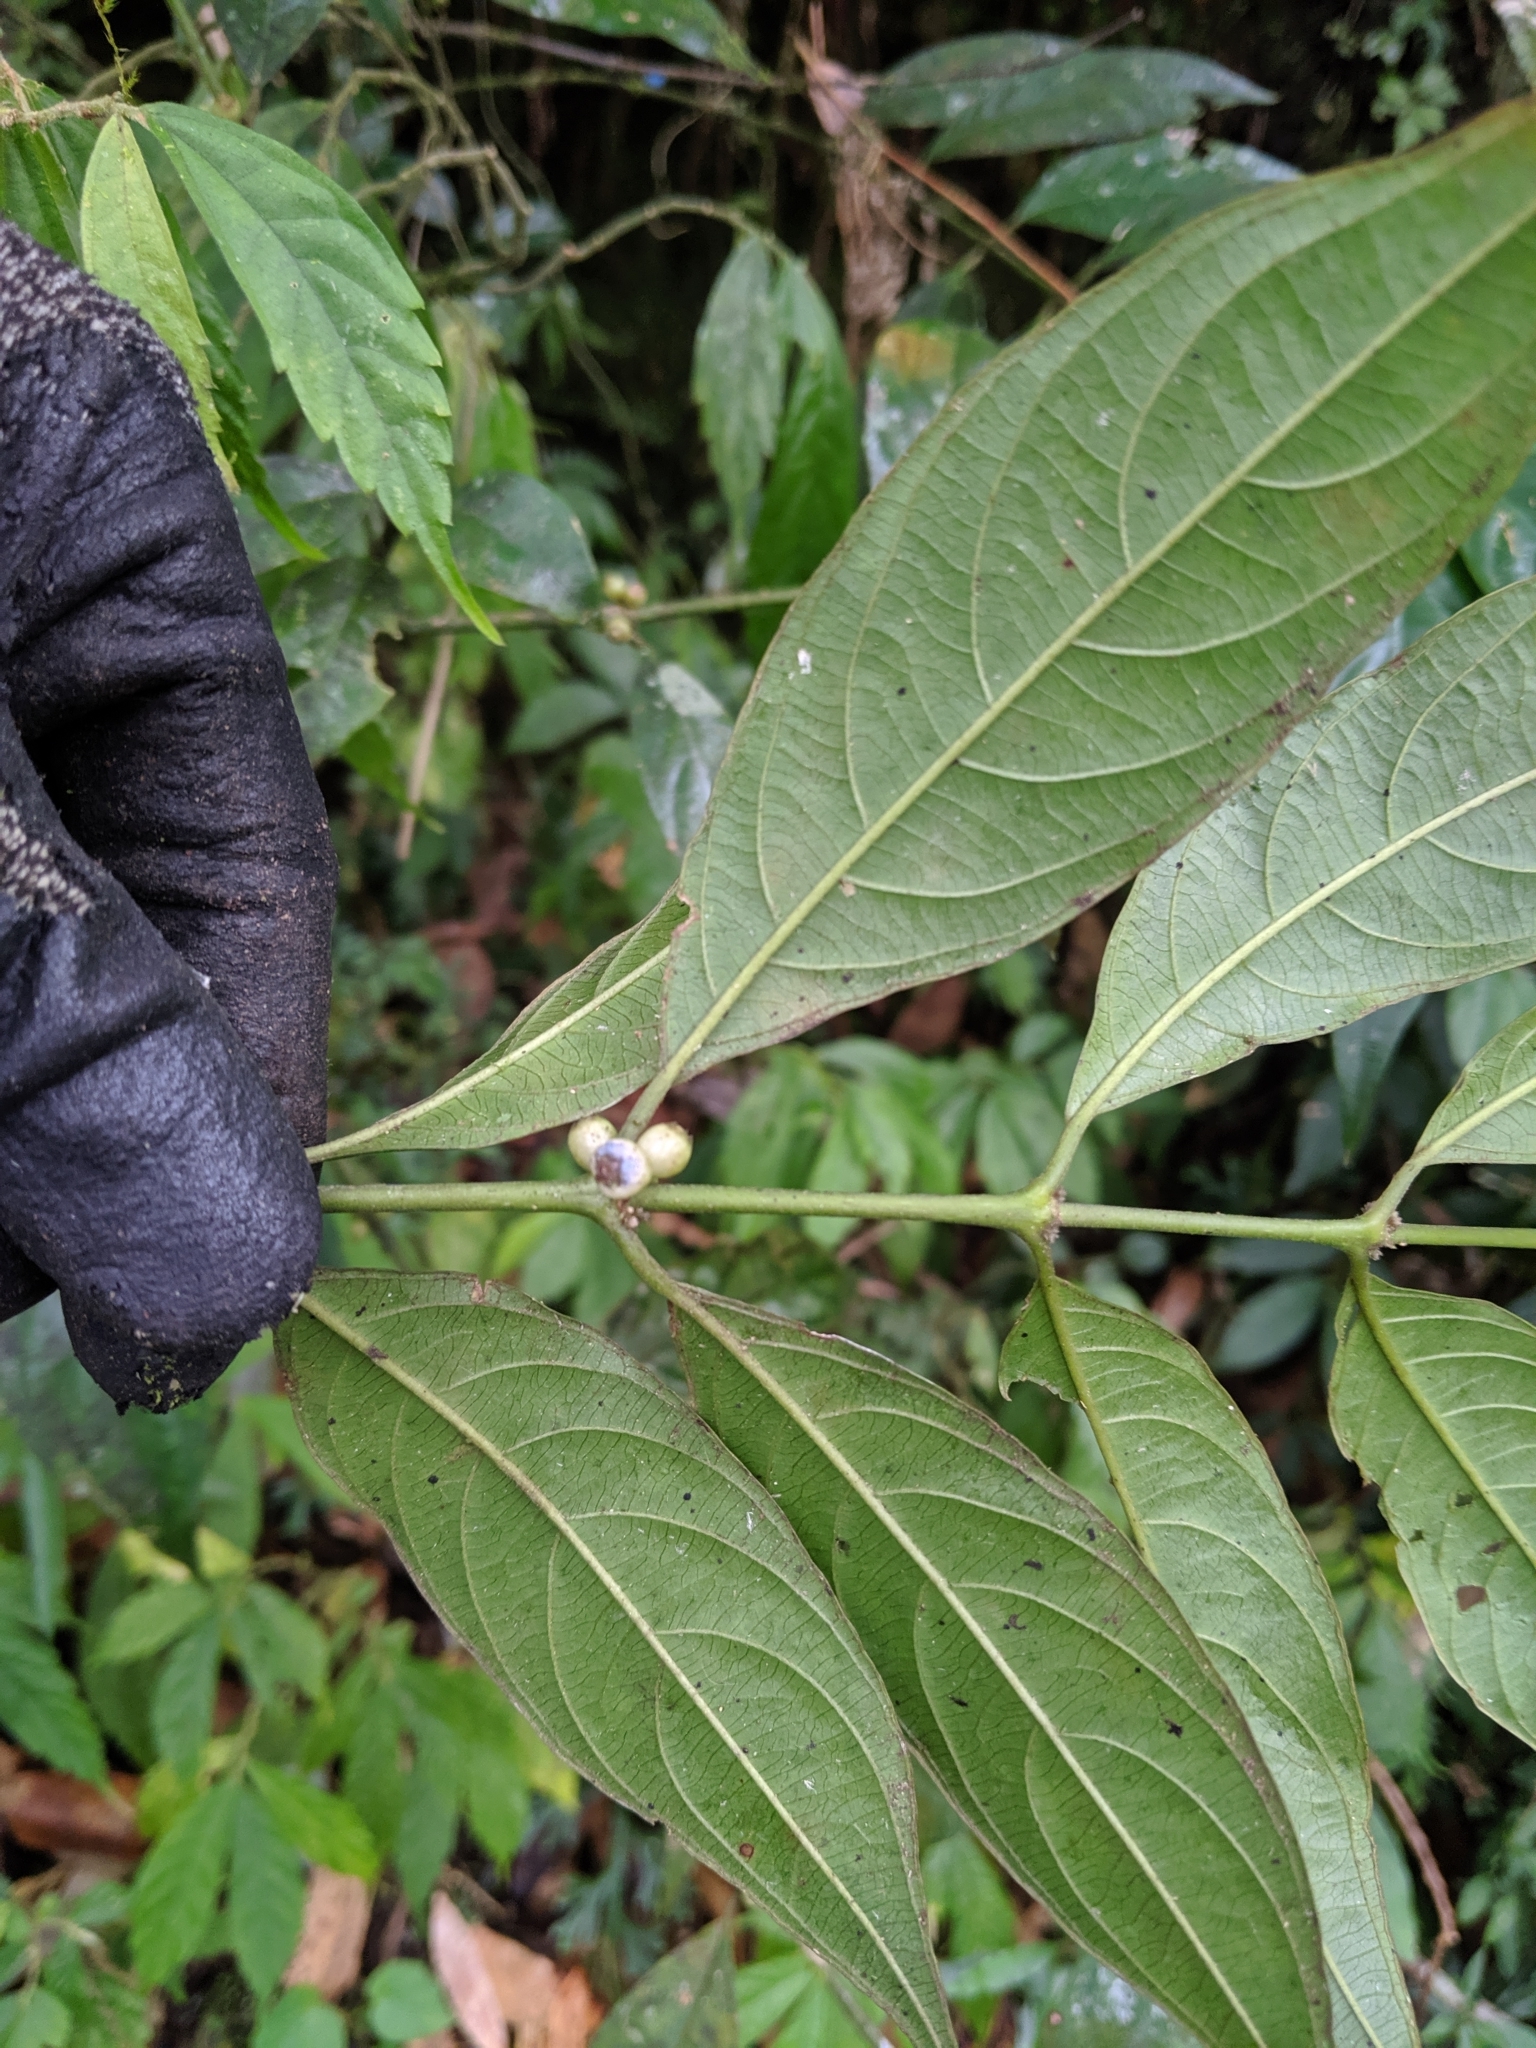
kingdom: Plantae
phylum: Tracheophyta
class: Magnoliopsida
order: Gentianales
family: Rubiaceae
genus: Lasianthus
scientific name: Lasianthus fordii
